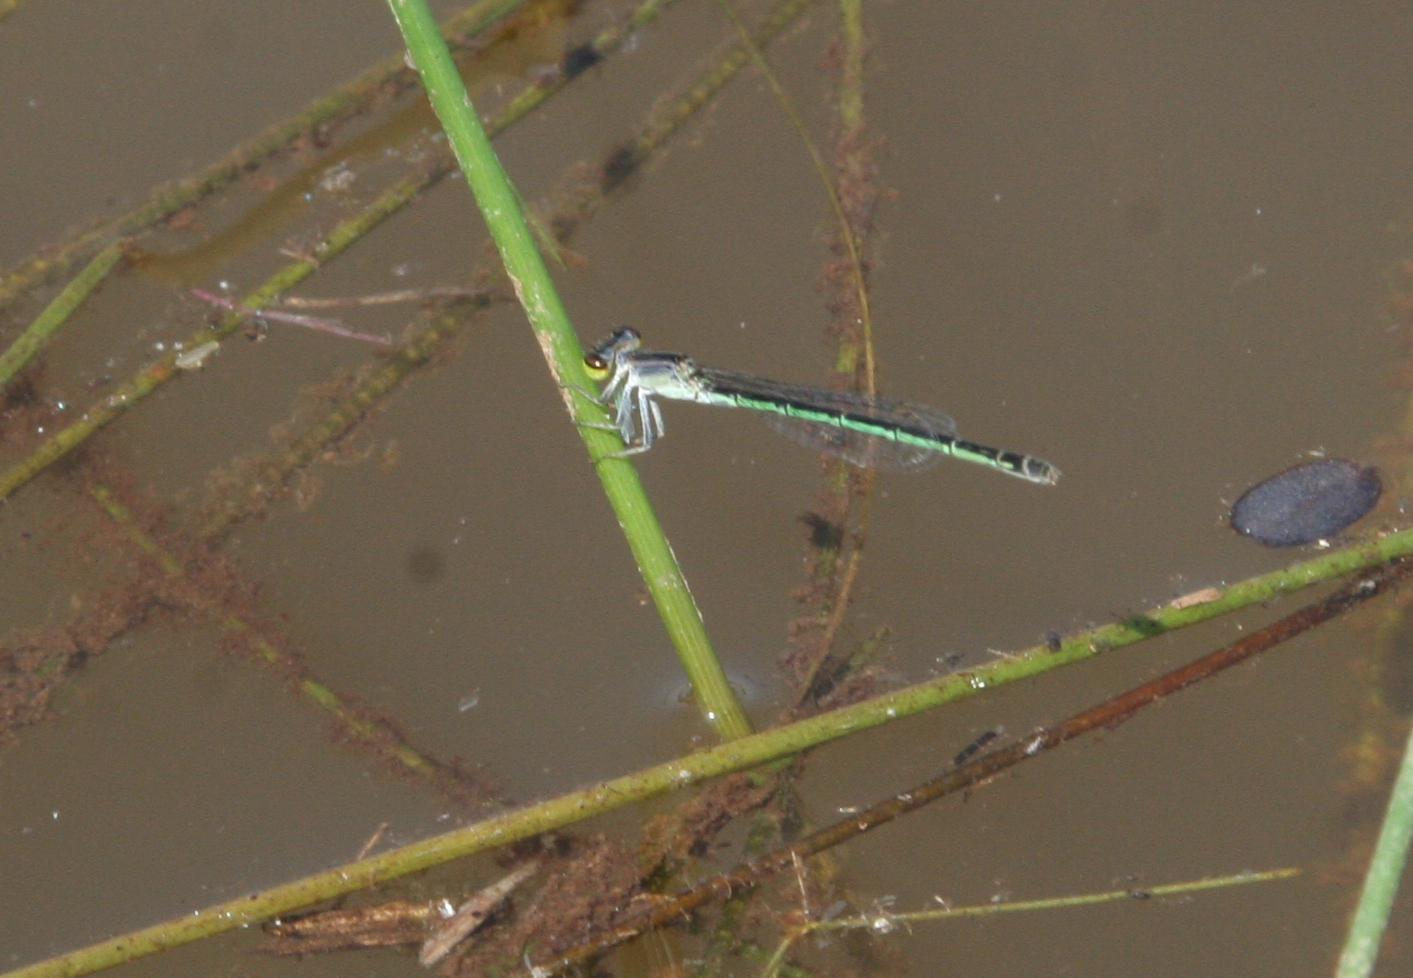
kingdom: Animalia
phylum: Arthropoda
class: Insecta
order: Odonata
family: Coenagrionidae
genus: Agriocnemis
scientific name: Agriocnemis minima
